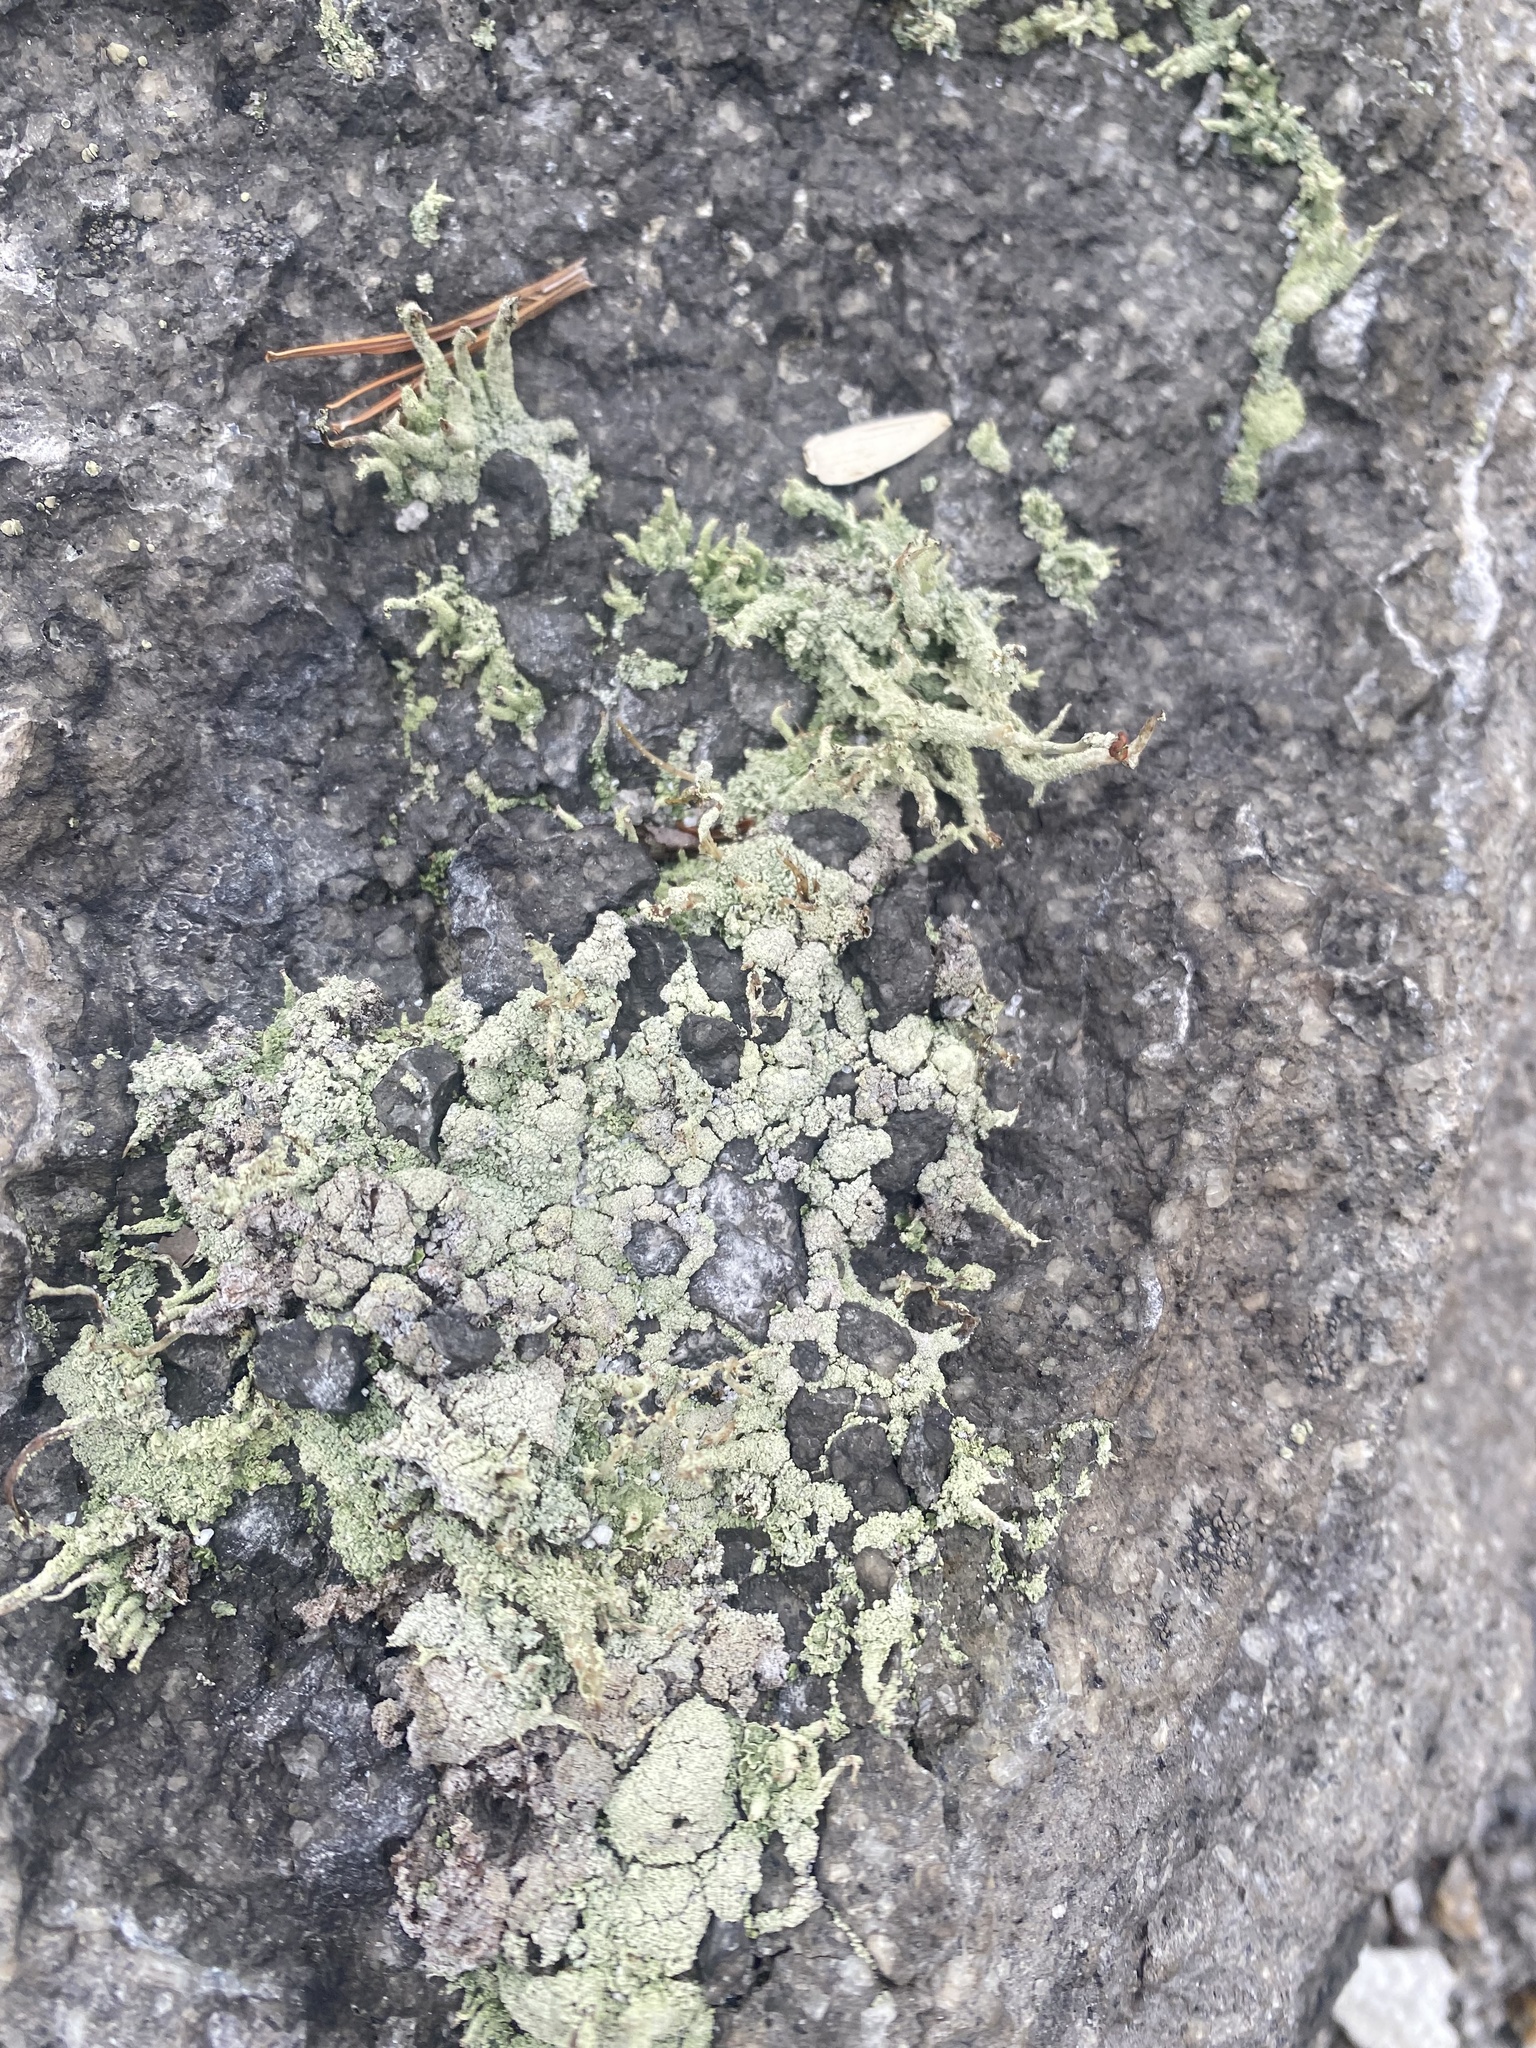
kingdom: Fungi
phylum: Ascomycota
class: Lecanoromycetes
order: Lecanorales
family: Cladoniaceae
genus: Cladonia
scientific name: Cladonia
